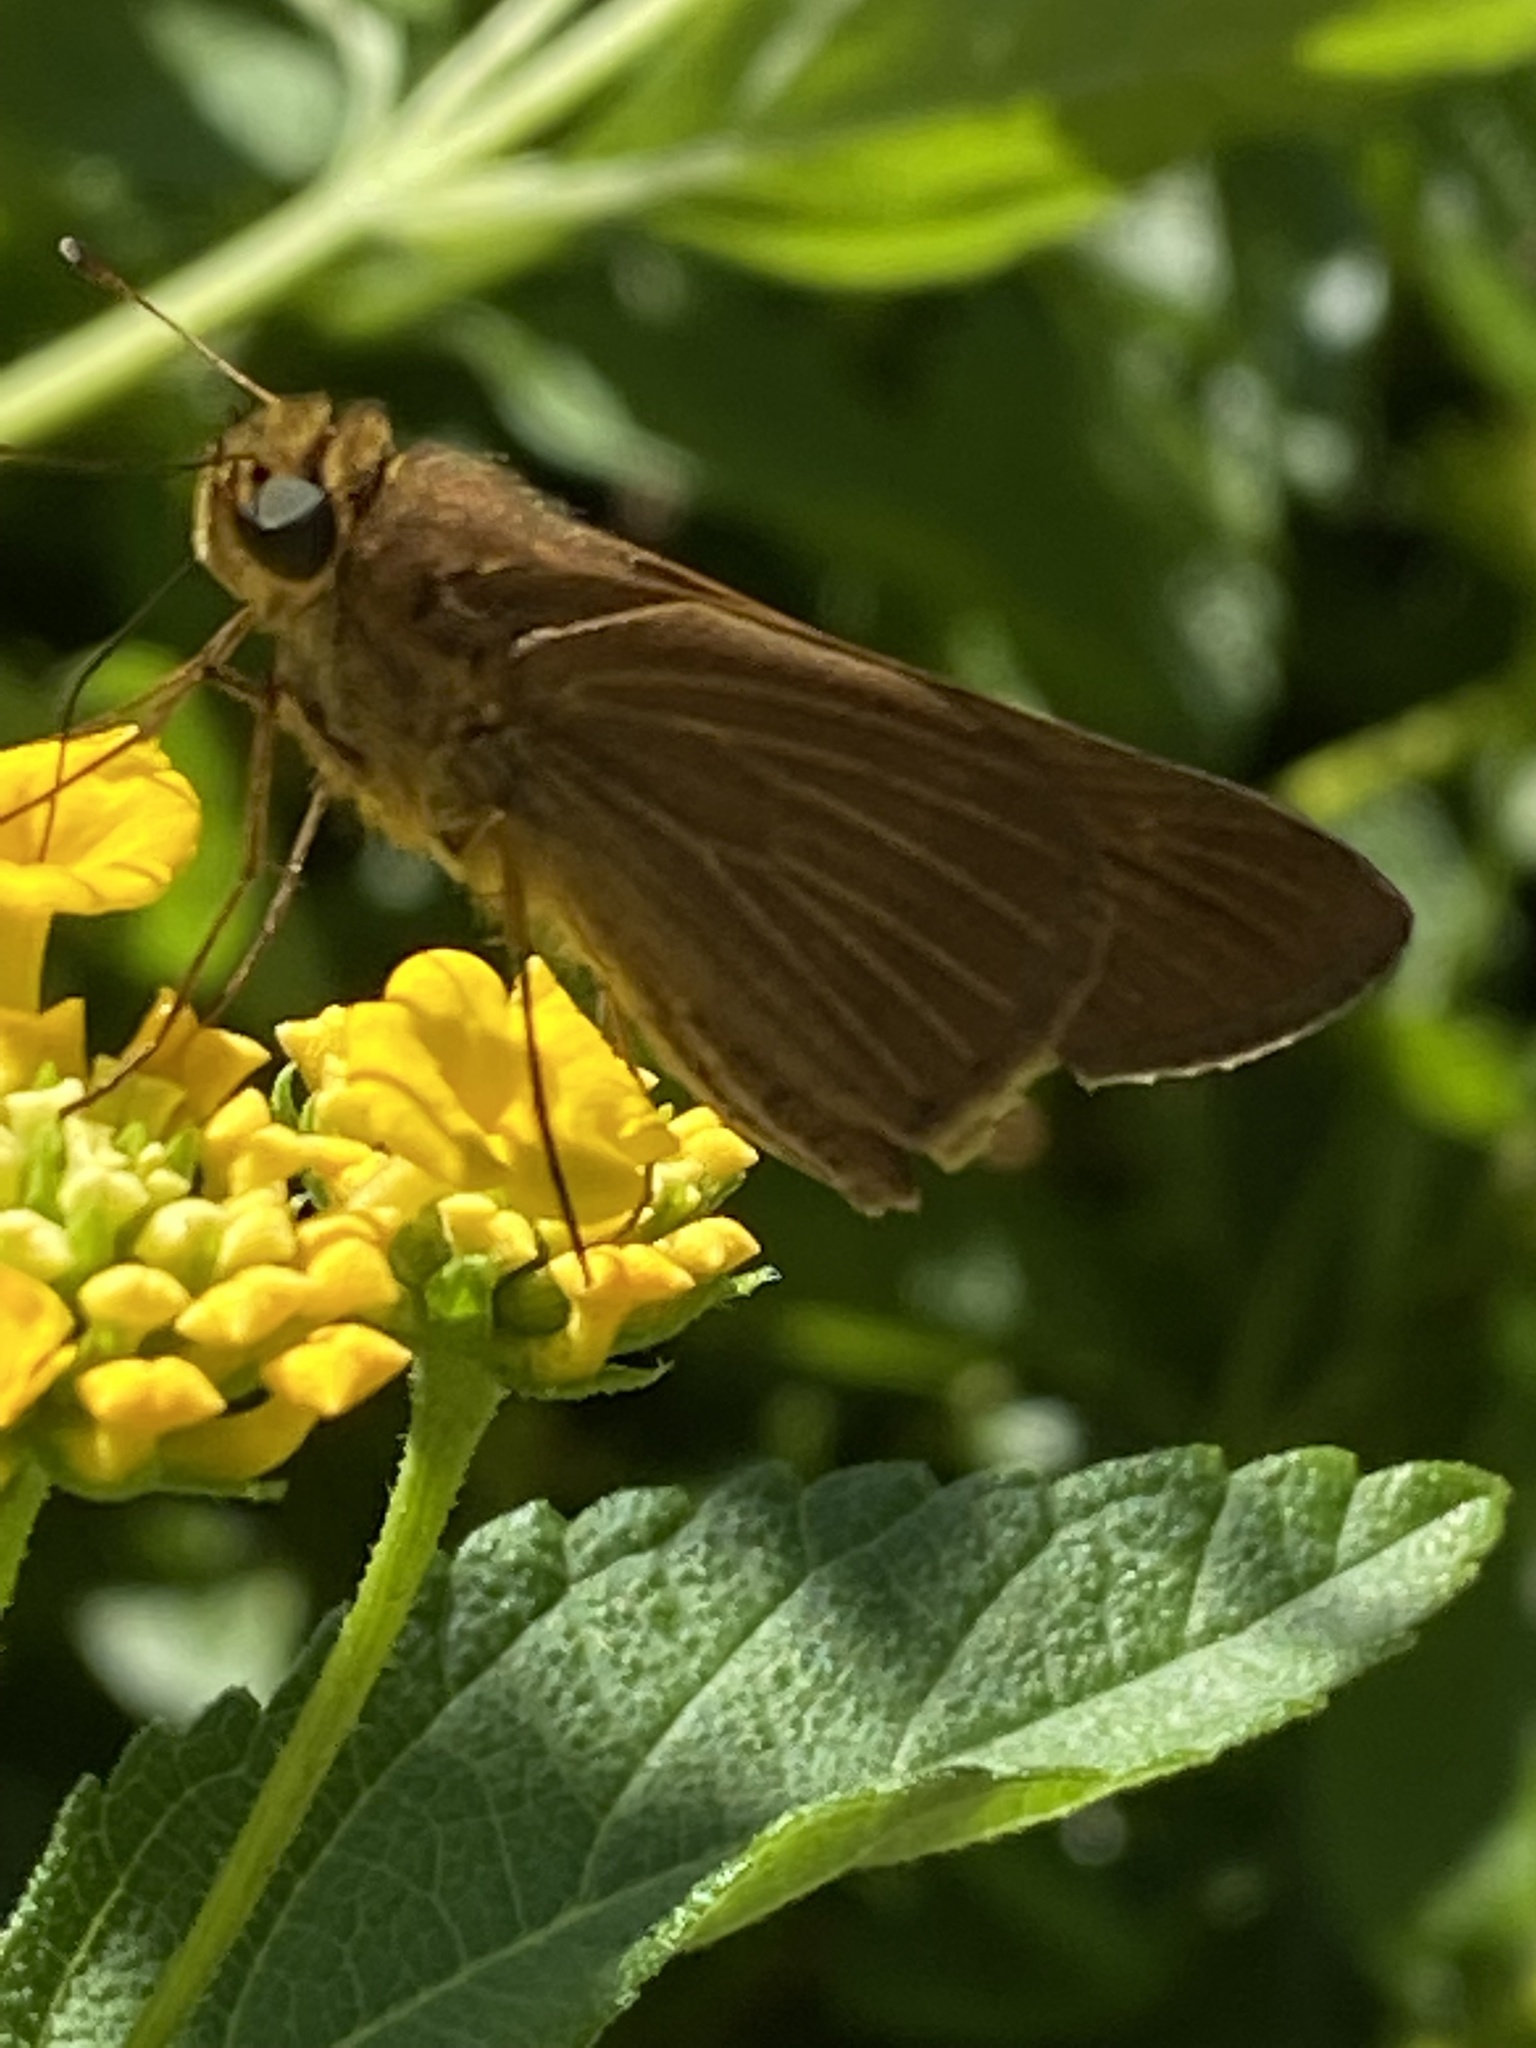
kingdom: Animalia
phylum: Arthropoda
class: Insecta
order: Lepidoptera
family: Hesperiidae
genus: Panoquina
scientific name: Panoquina ocola
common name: Ocola skipper
